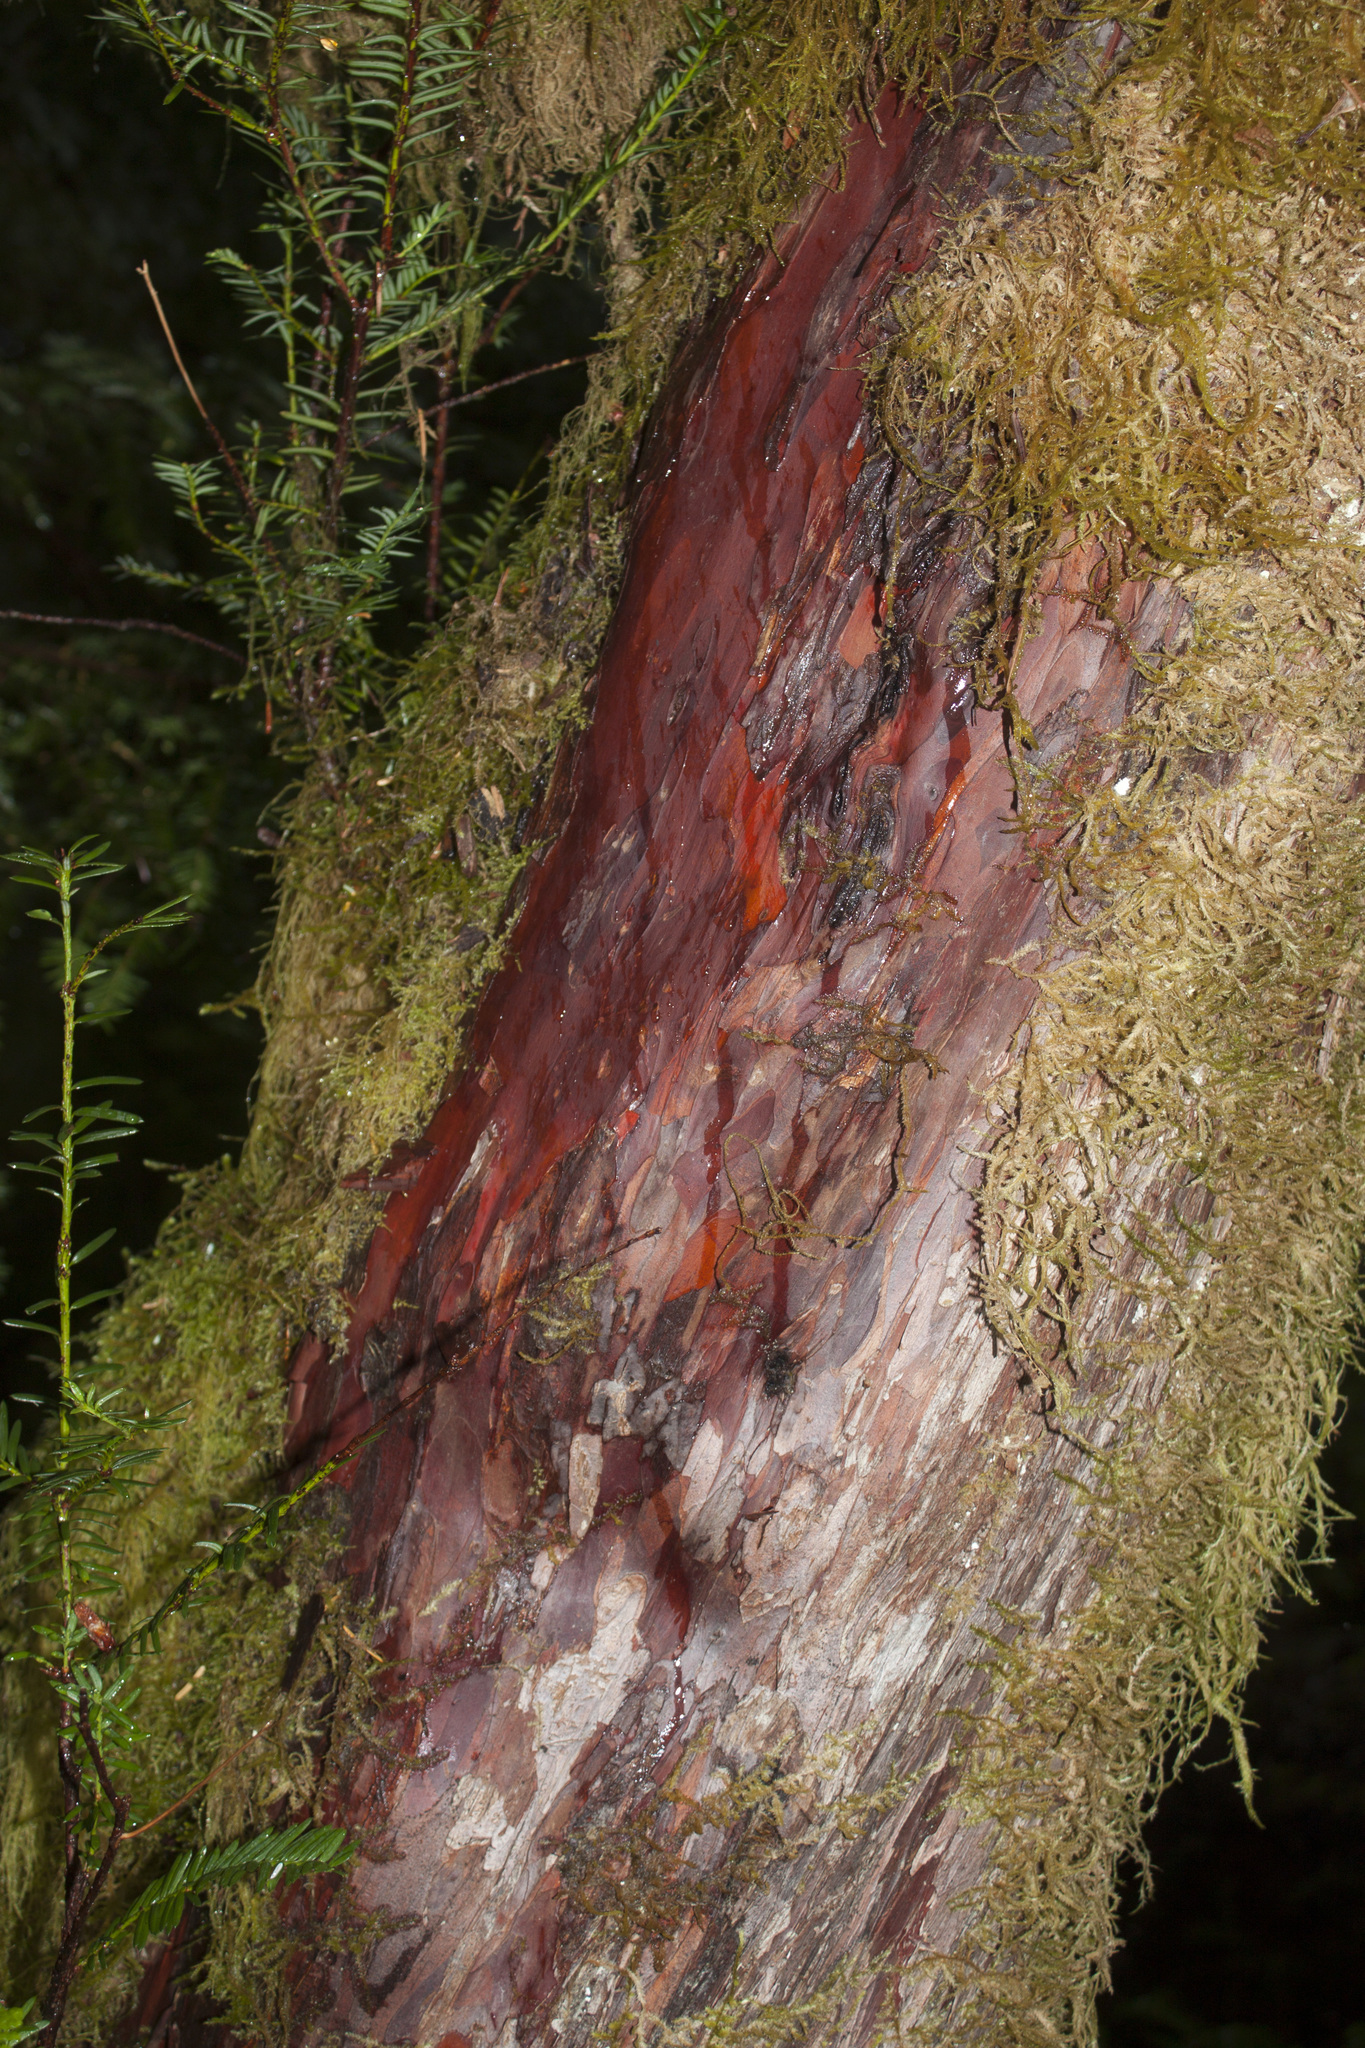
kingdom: Plantae
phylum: Tracheophyta
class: Pinopsida
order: Pinales
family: Taxaceae
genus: Taxus
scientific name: Taxus brevifolia
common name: Pacific yew
